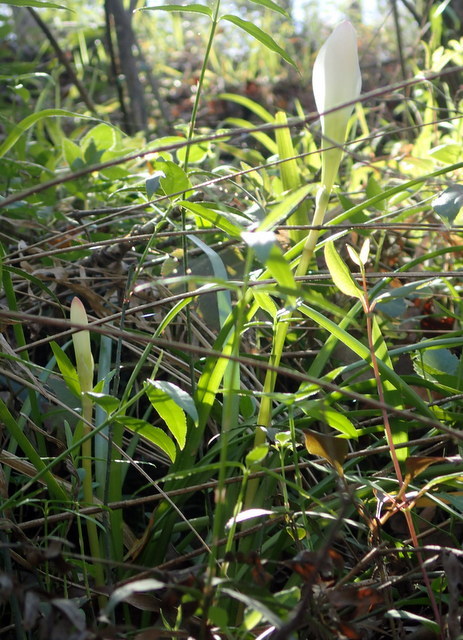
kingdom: Plantae
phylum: Tracheophyta
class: Liliopsida
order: Asparagales
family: Amaryllidaceae
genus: Zephyranthes
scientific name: Zephyranthes atamasco
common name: Atamasco lily
